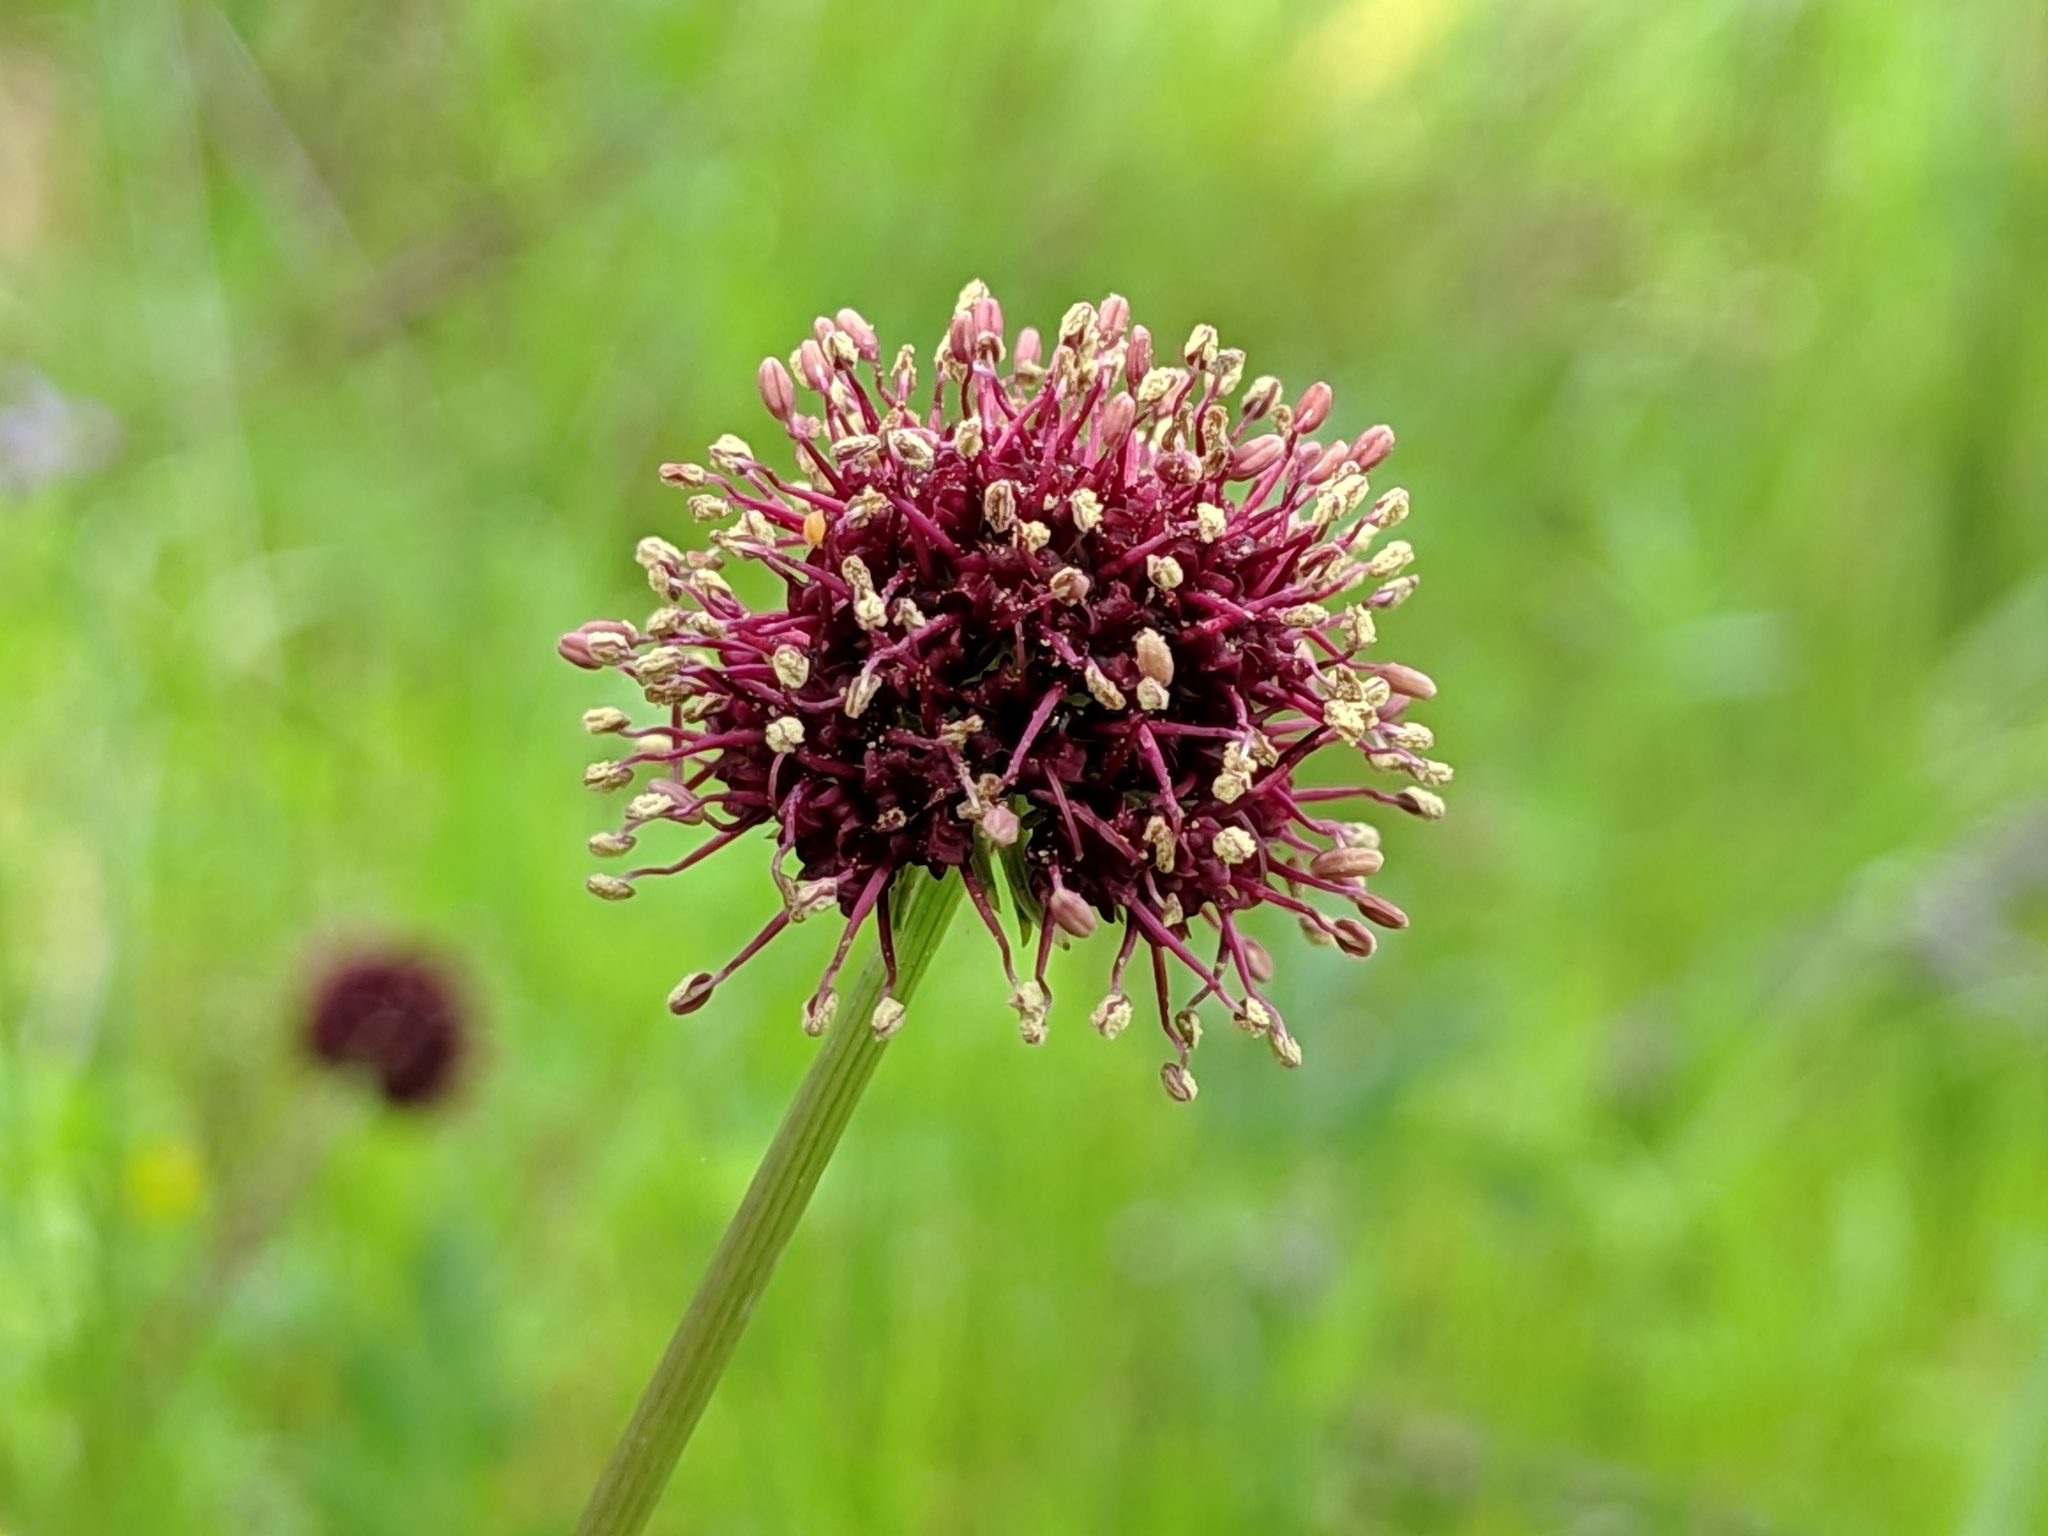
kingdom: Plantae
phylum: Tracheophyta
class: Magnoliopsida
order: Apiales
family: Apiaceae
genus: Sanicula
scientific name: Sanicula bipinnatifida
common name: Shoe-buttons
